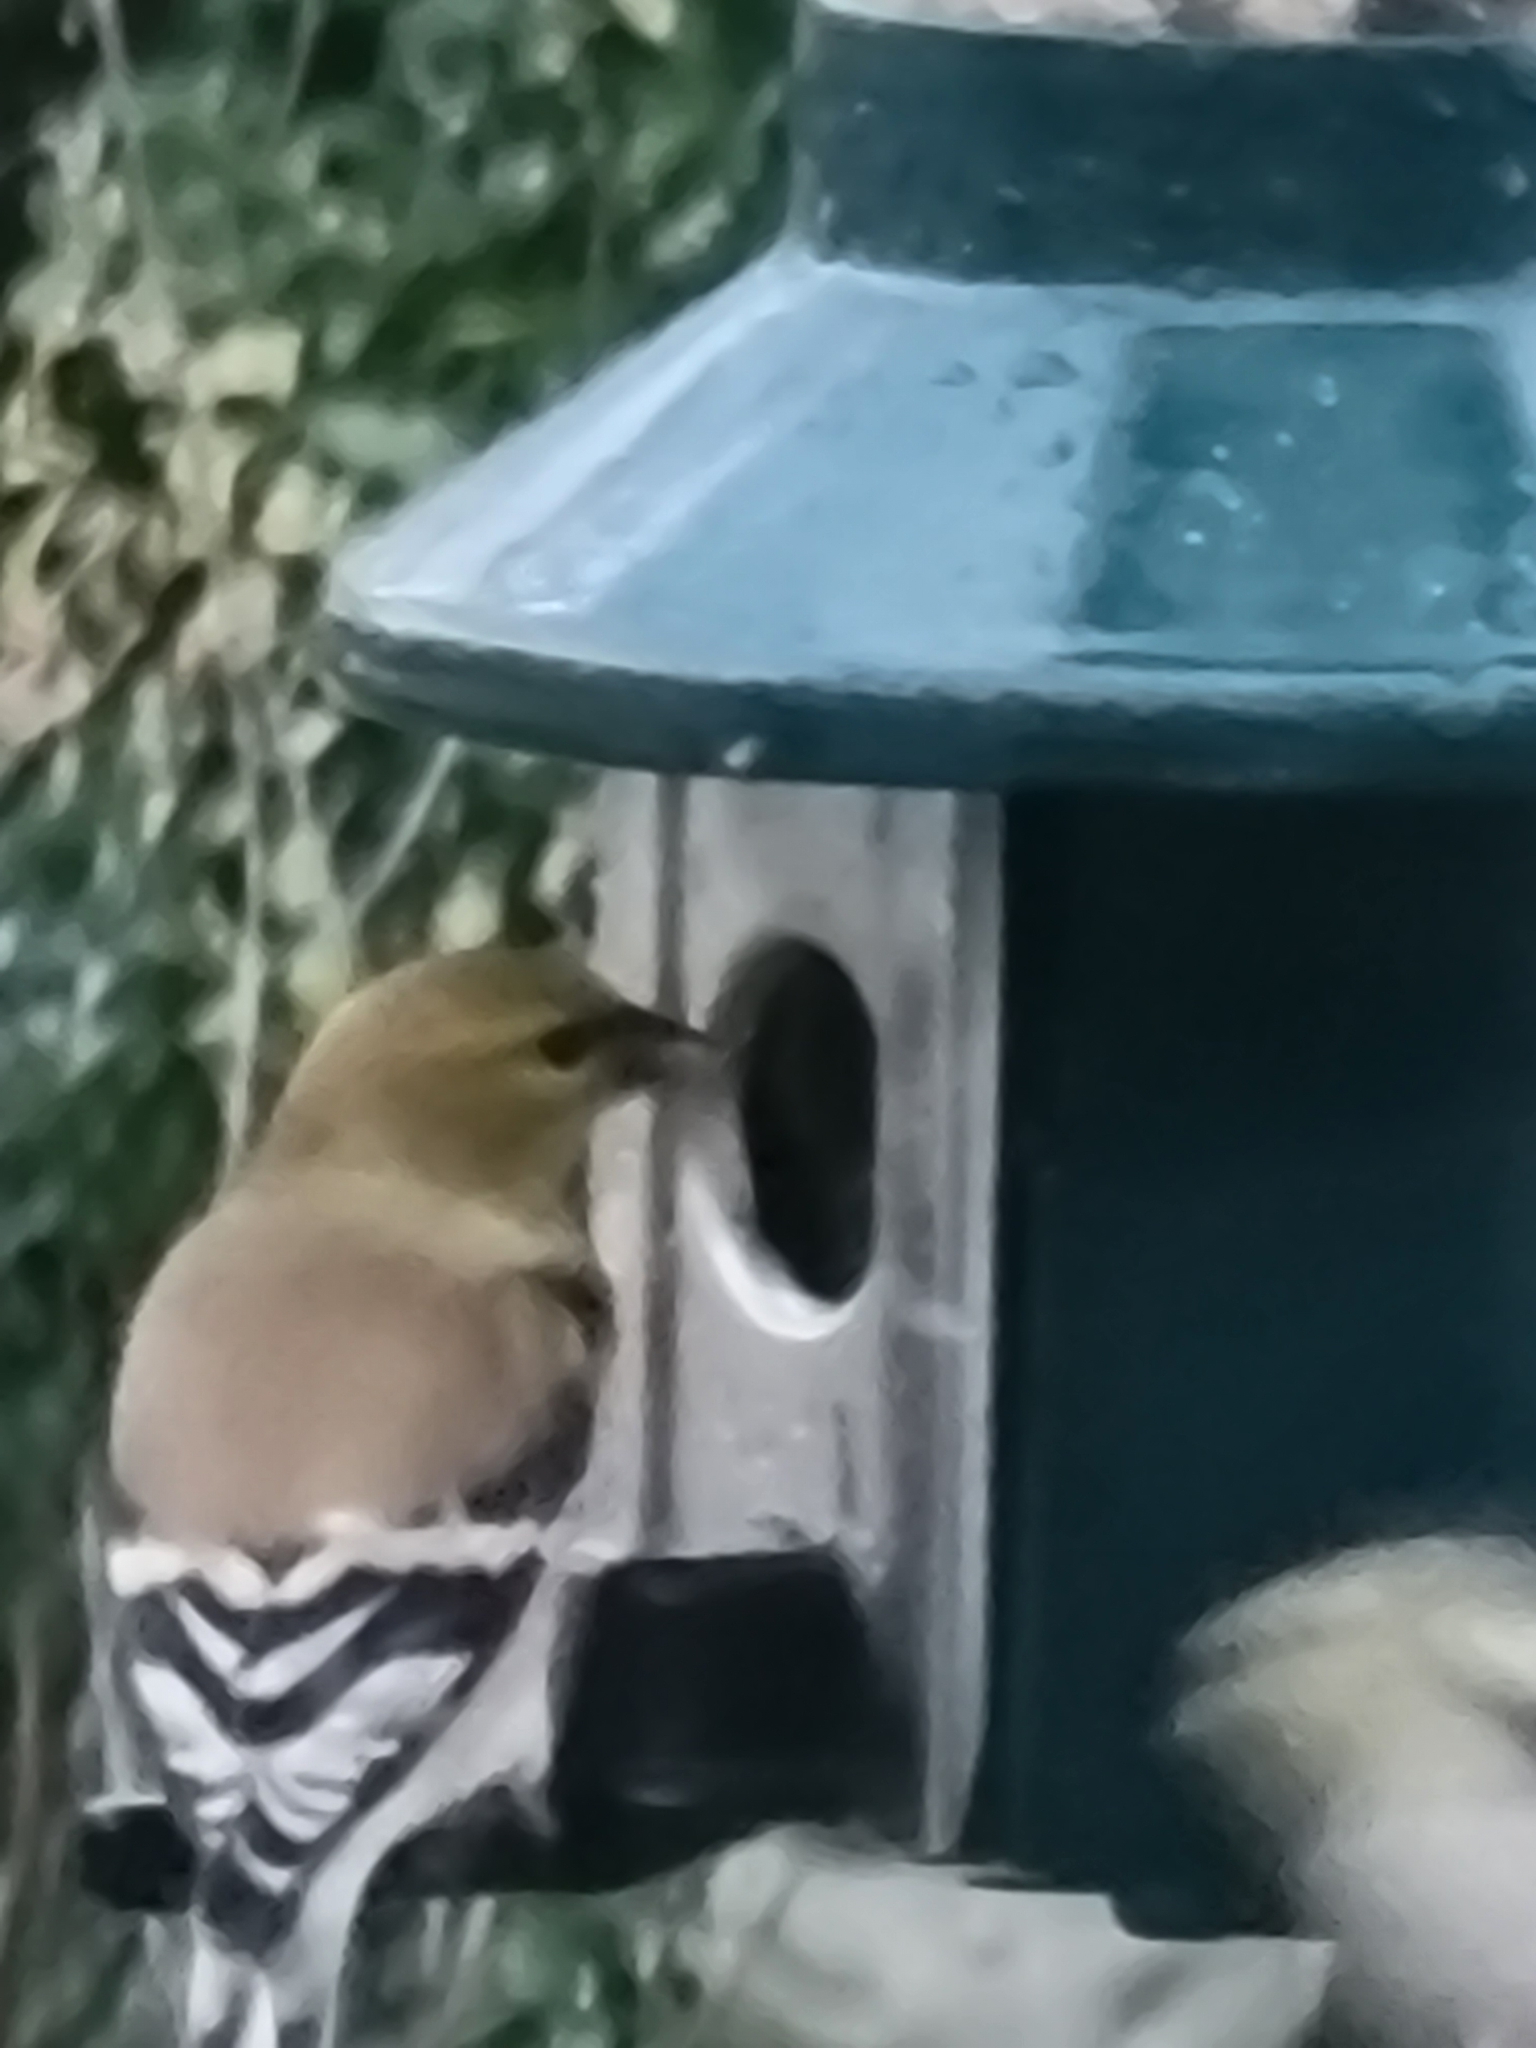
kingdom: Animalia
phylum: Chordata
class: Aves
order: Passeriformes
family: Fringillidae
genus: Spinus
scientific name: Spinus tristis
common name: American goldfinch
